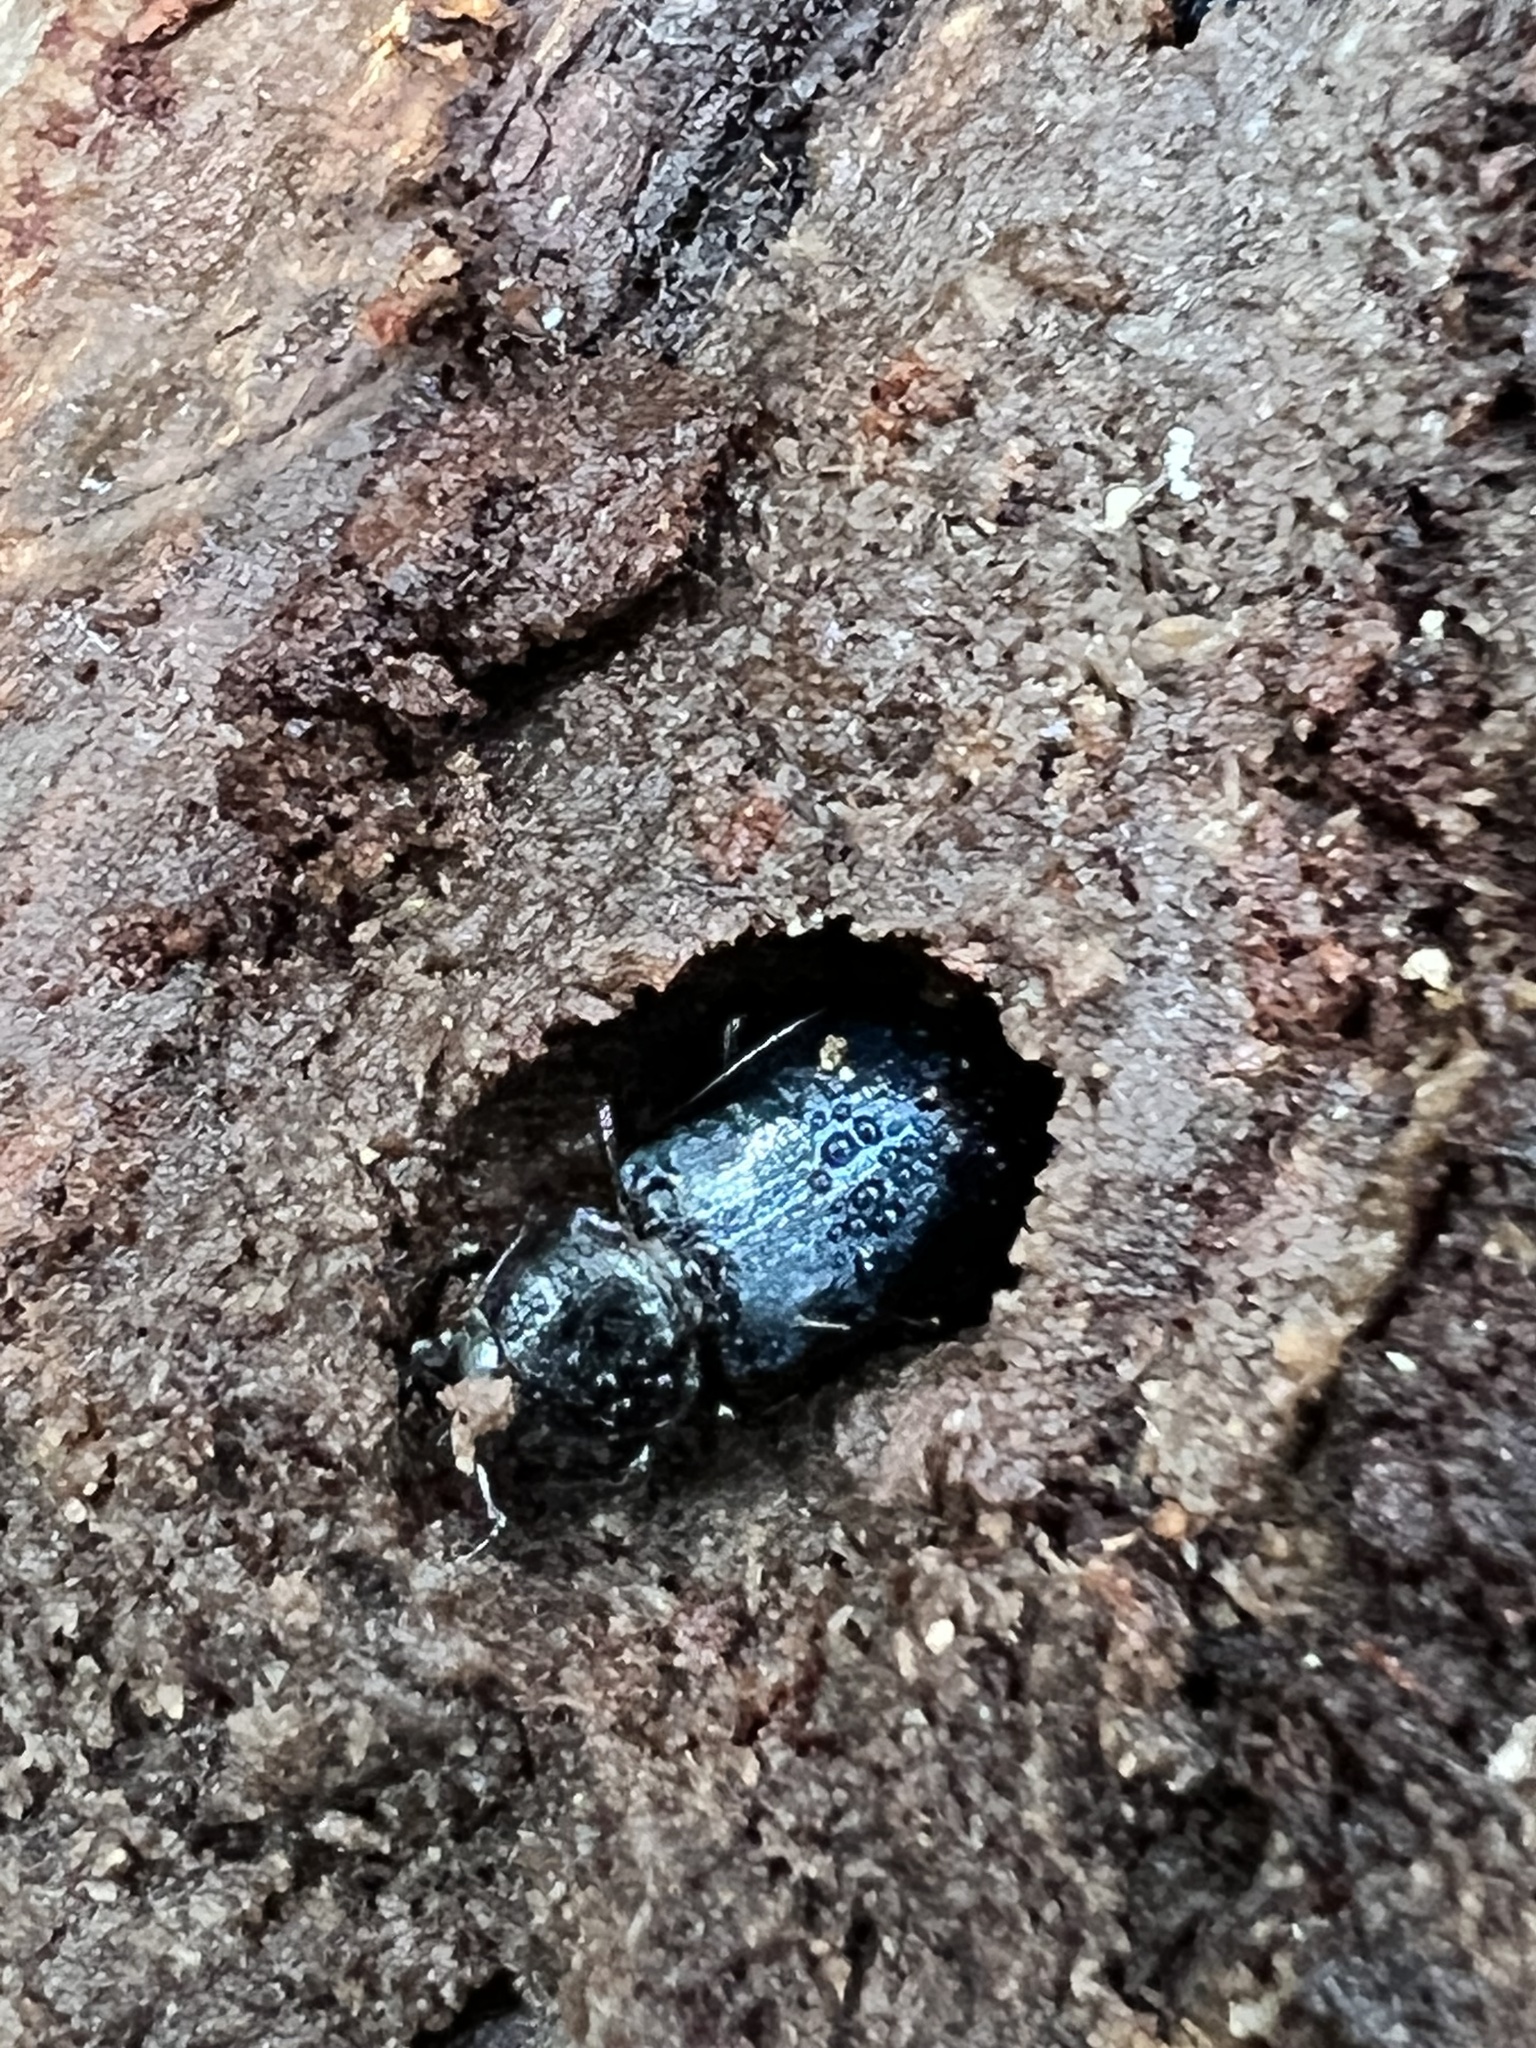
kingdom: Animalia
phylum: Arthropoda
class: Insecta
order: Coleoptera
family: Lucanidae
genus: Platycerus
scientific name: Platycerus oregonensis
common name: Oregon stag beetle
